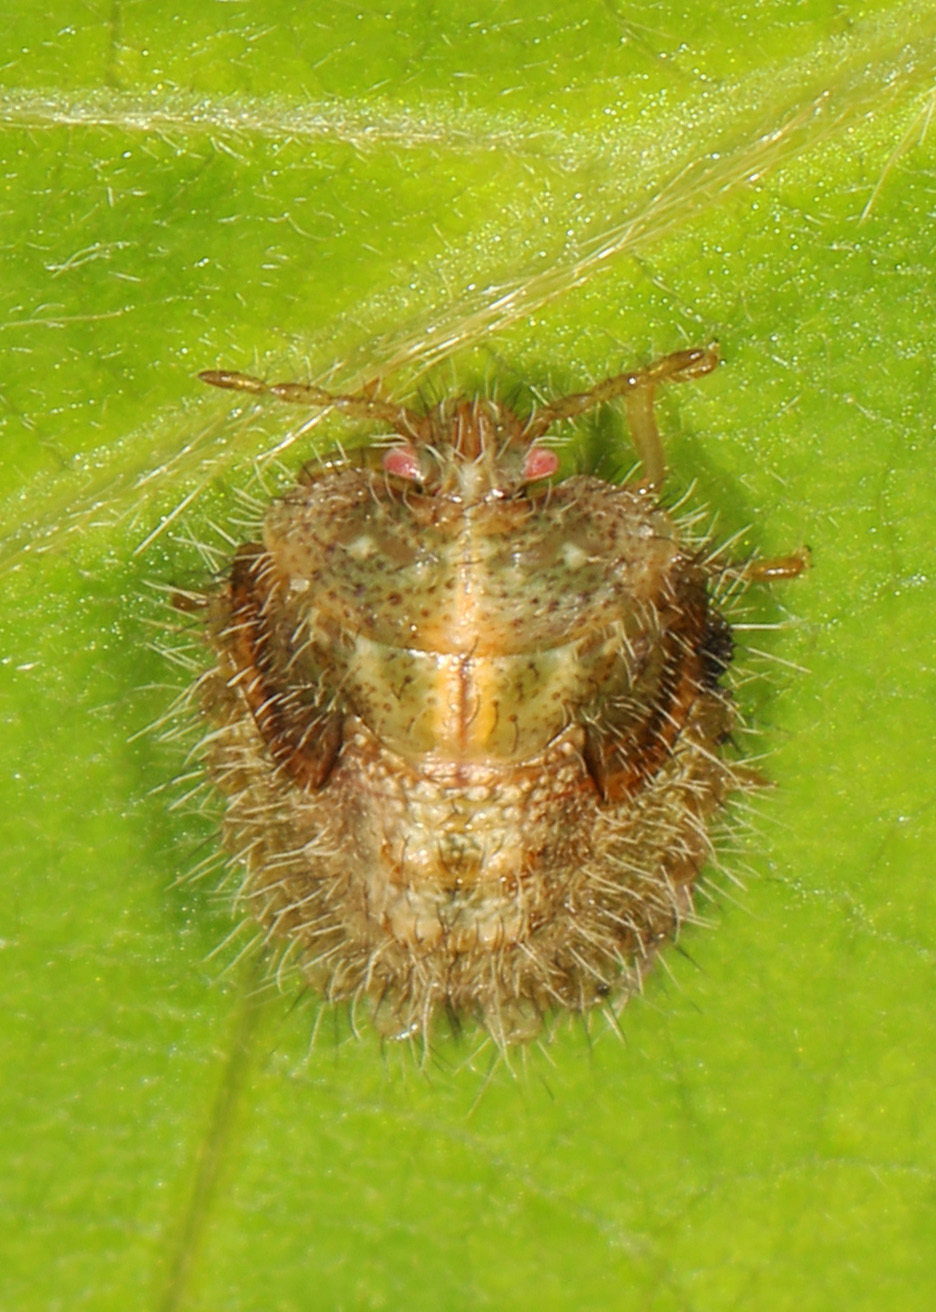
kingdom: Animalia
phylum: Arthropoda
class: Insecta
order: Hemiptera
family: Plataspidae
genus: Megacopta
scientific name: Megacopta cribraria
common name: Bean plataspid
